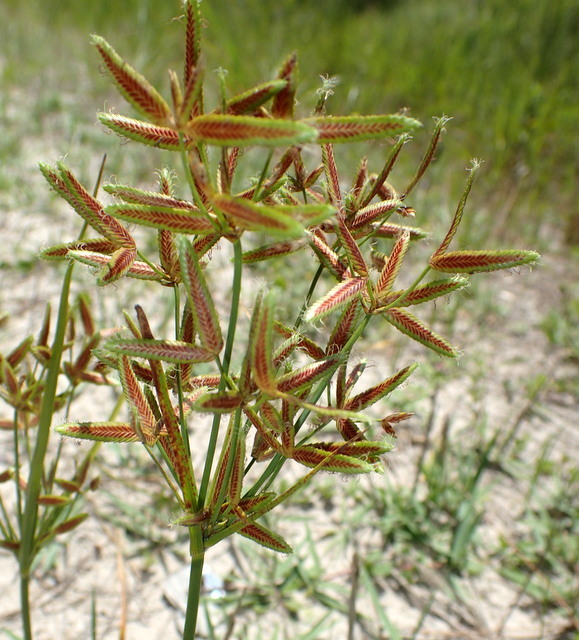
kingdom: Plantae
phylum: Tracheophyta
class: Liliopsida
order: Poales
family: Cyperaceae
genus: Cyperus
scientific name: Cyperus lecontei
